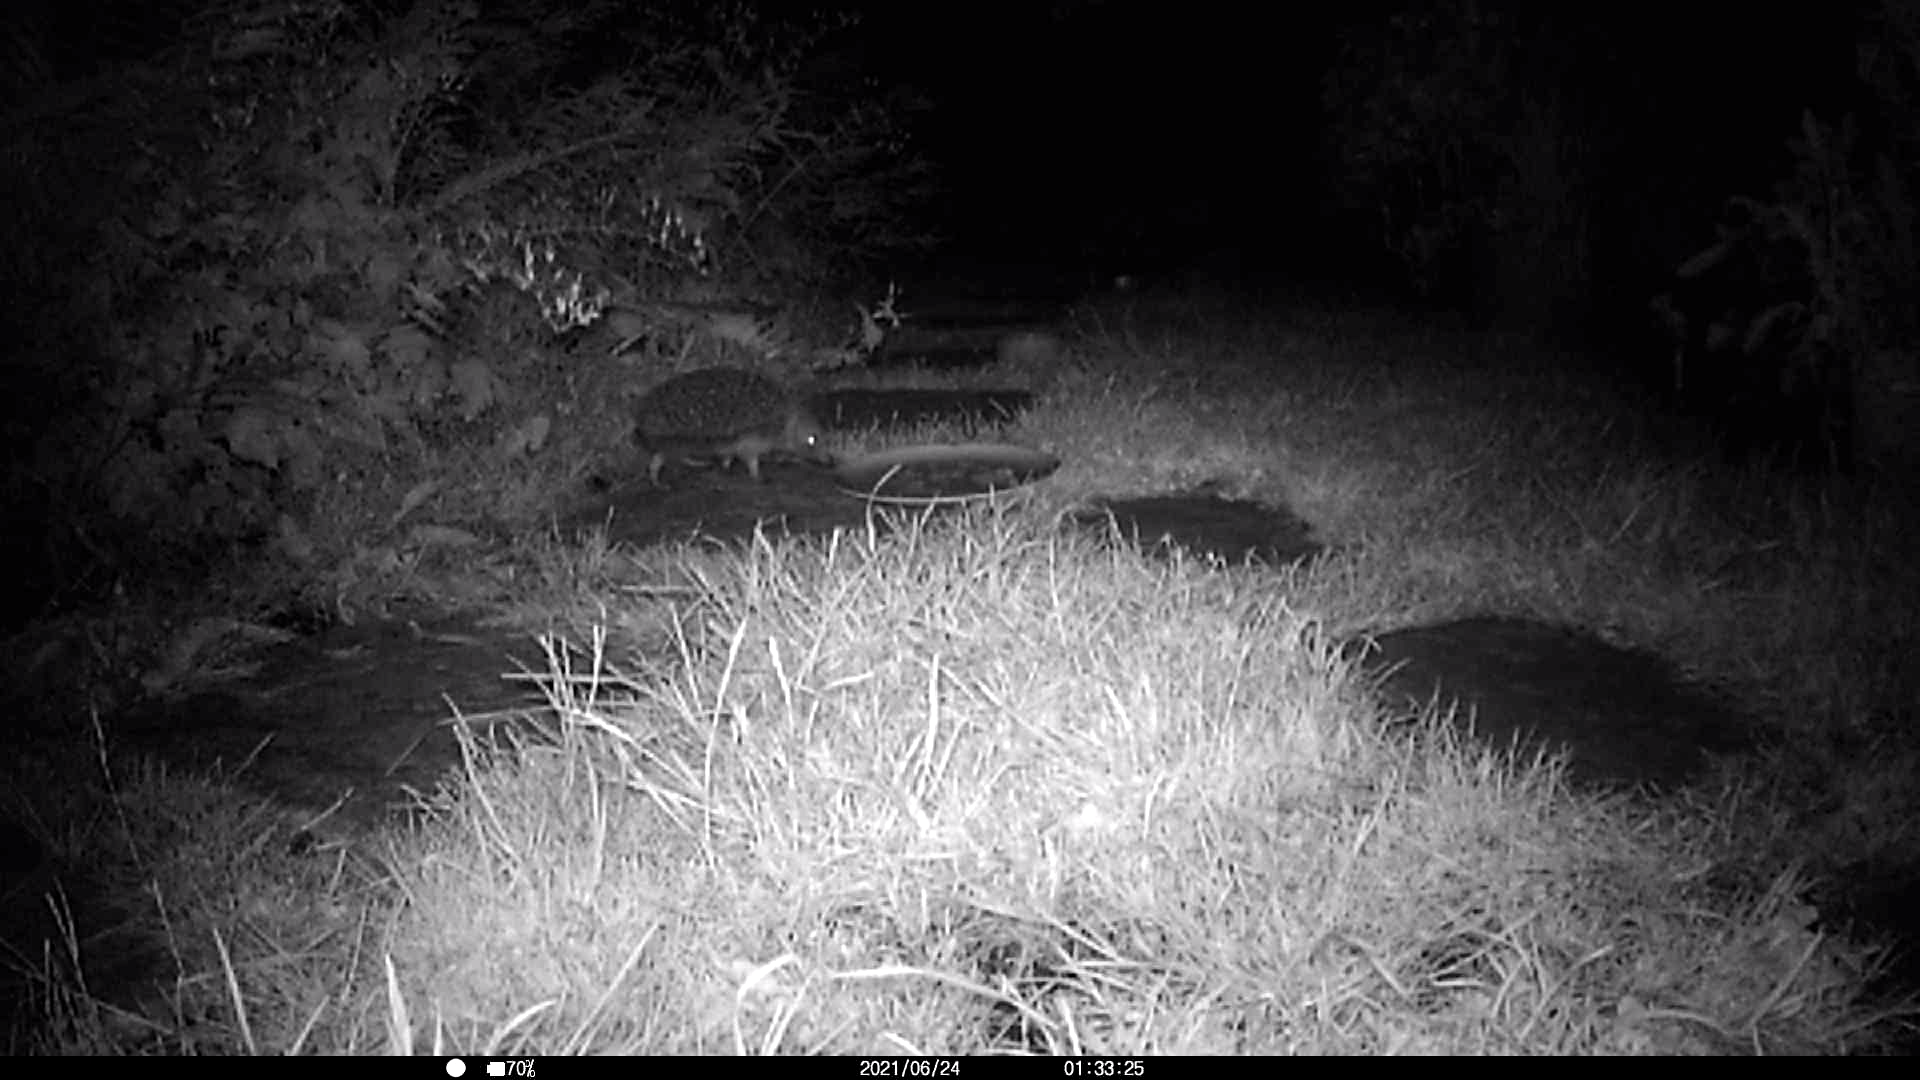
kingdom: Animalia
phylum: Chordata
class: Mammalia
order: Erinaceomorpha
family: Erinaceidae
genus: Erinaceus
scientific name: Erinaceus europaeus
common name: West european hedgehog
